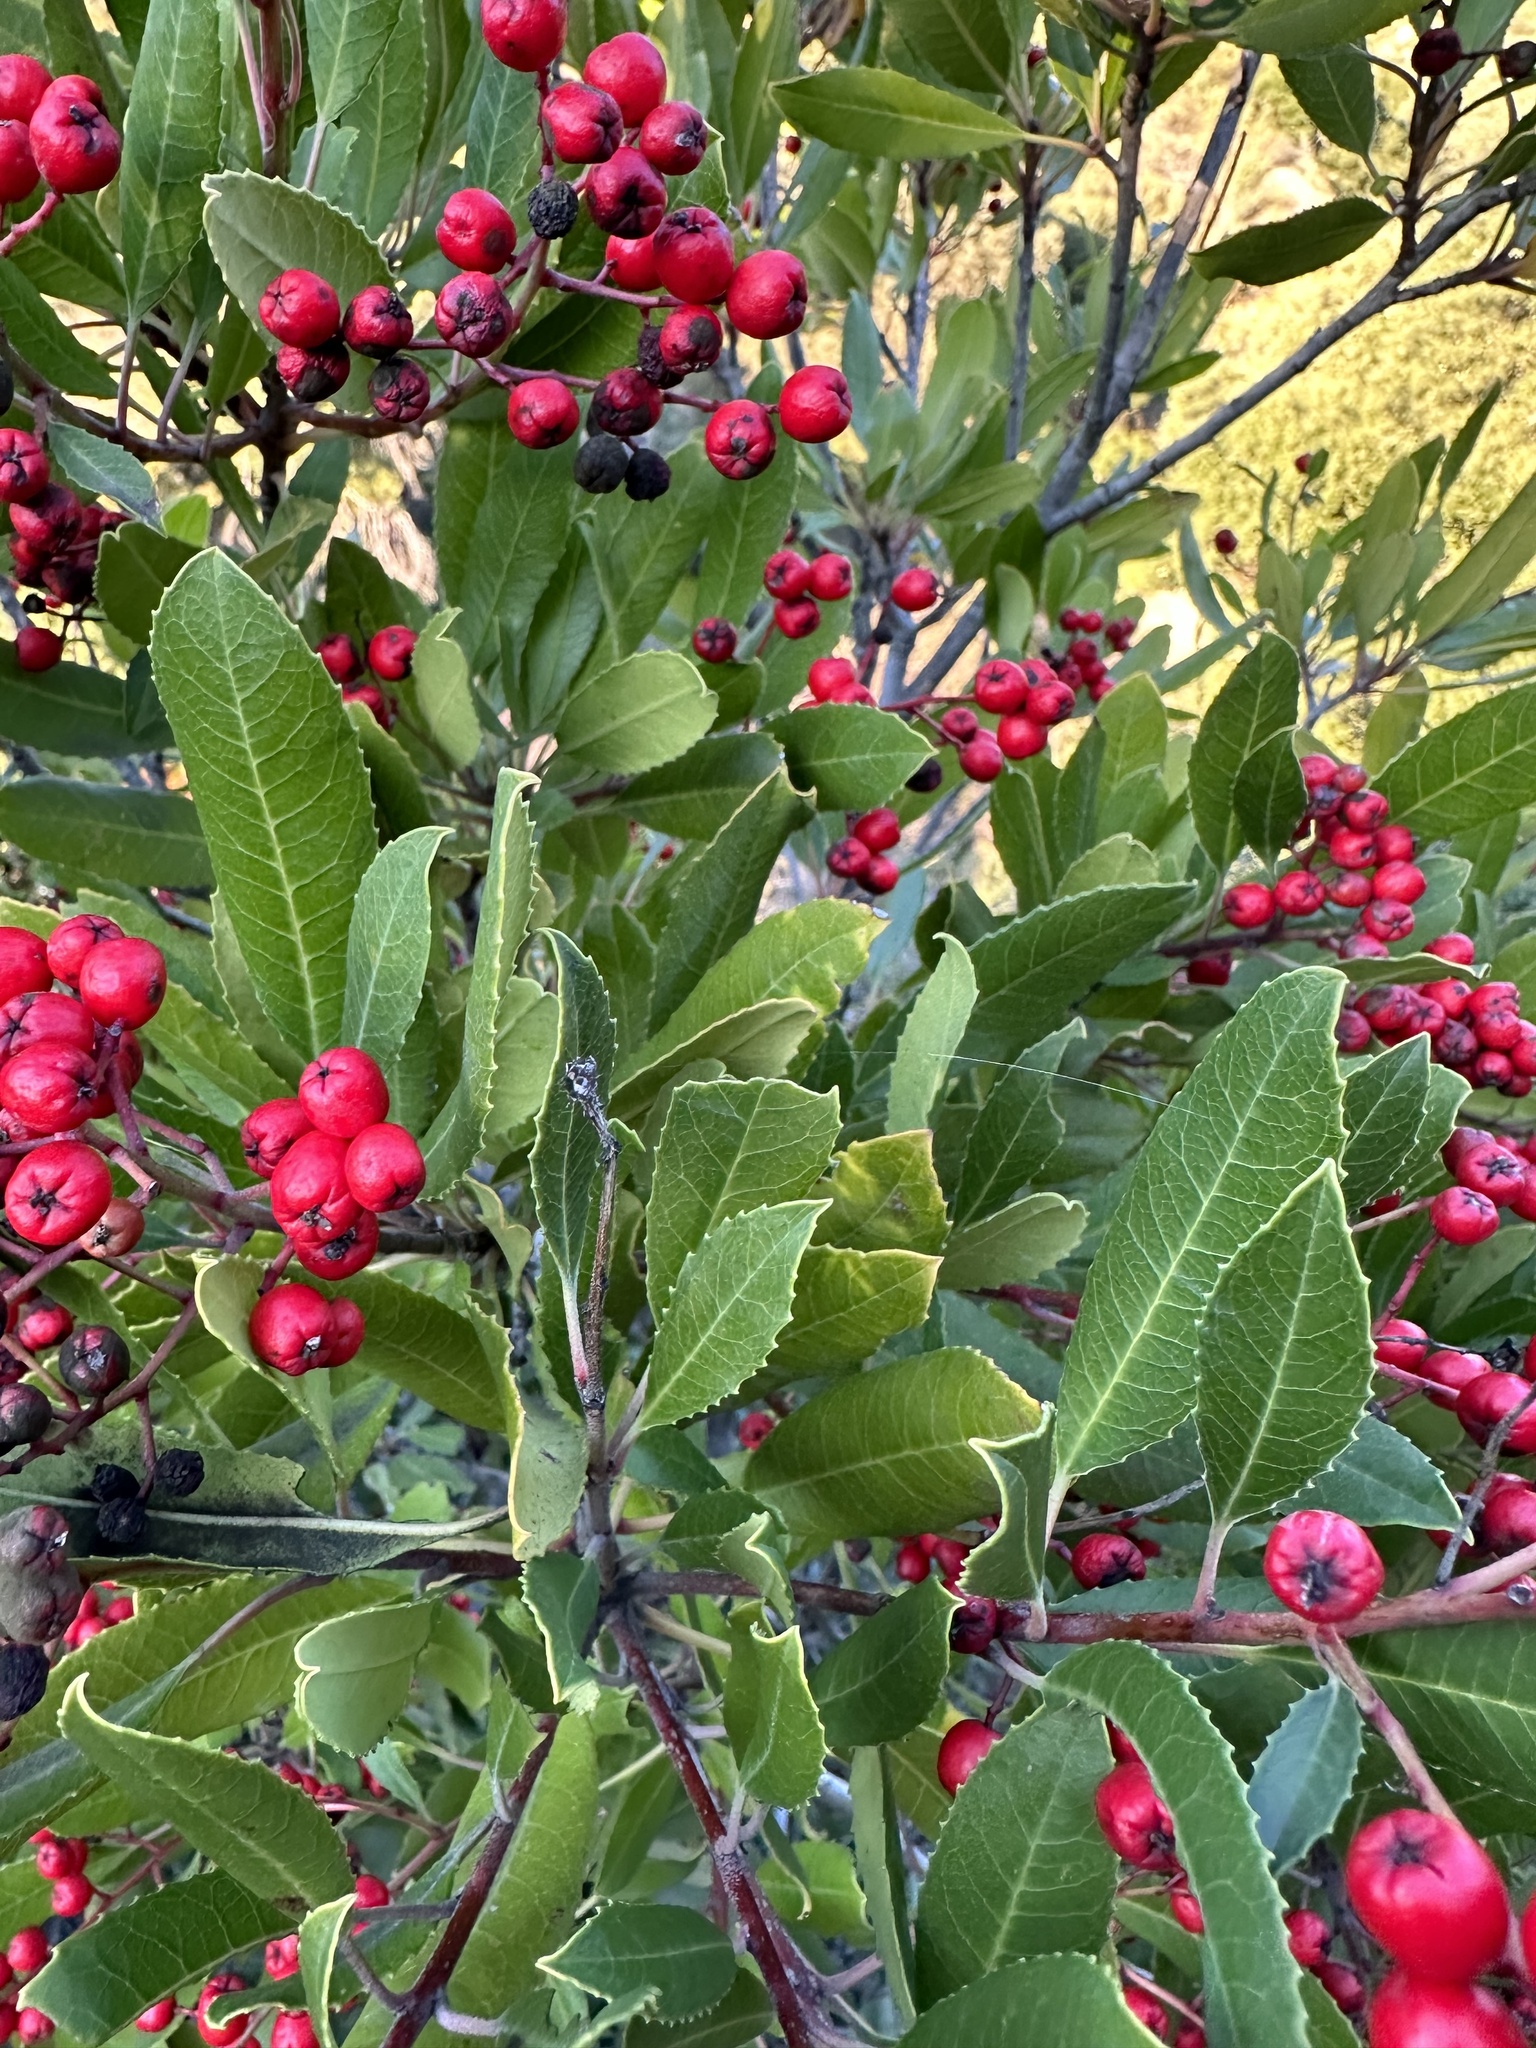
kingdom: Plantae
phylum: Tracheophyta
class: Magnoliopsida
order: Rosales
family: Rosaceae
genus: Heteromeles
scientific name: Heteromeles arbutifolia
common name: California-holly
